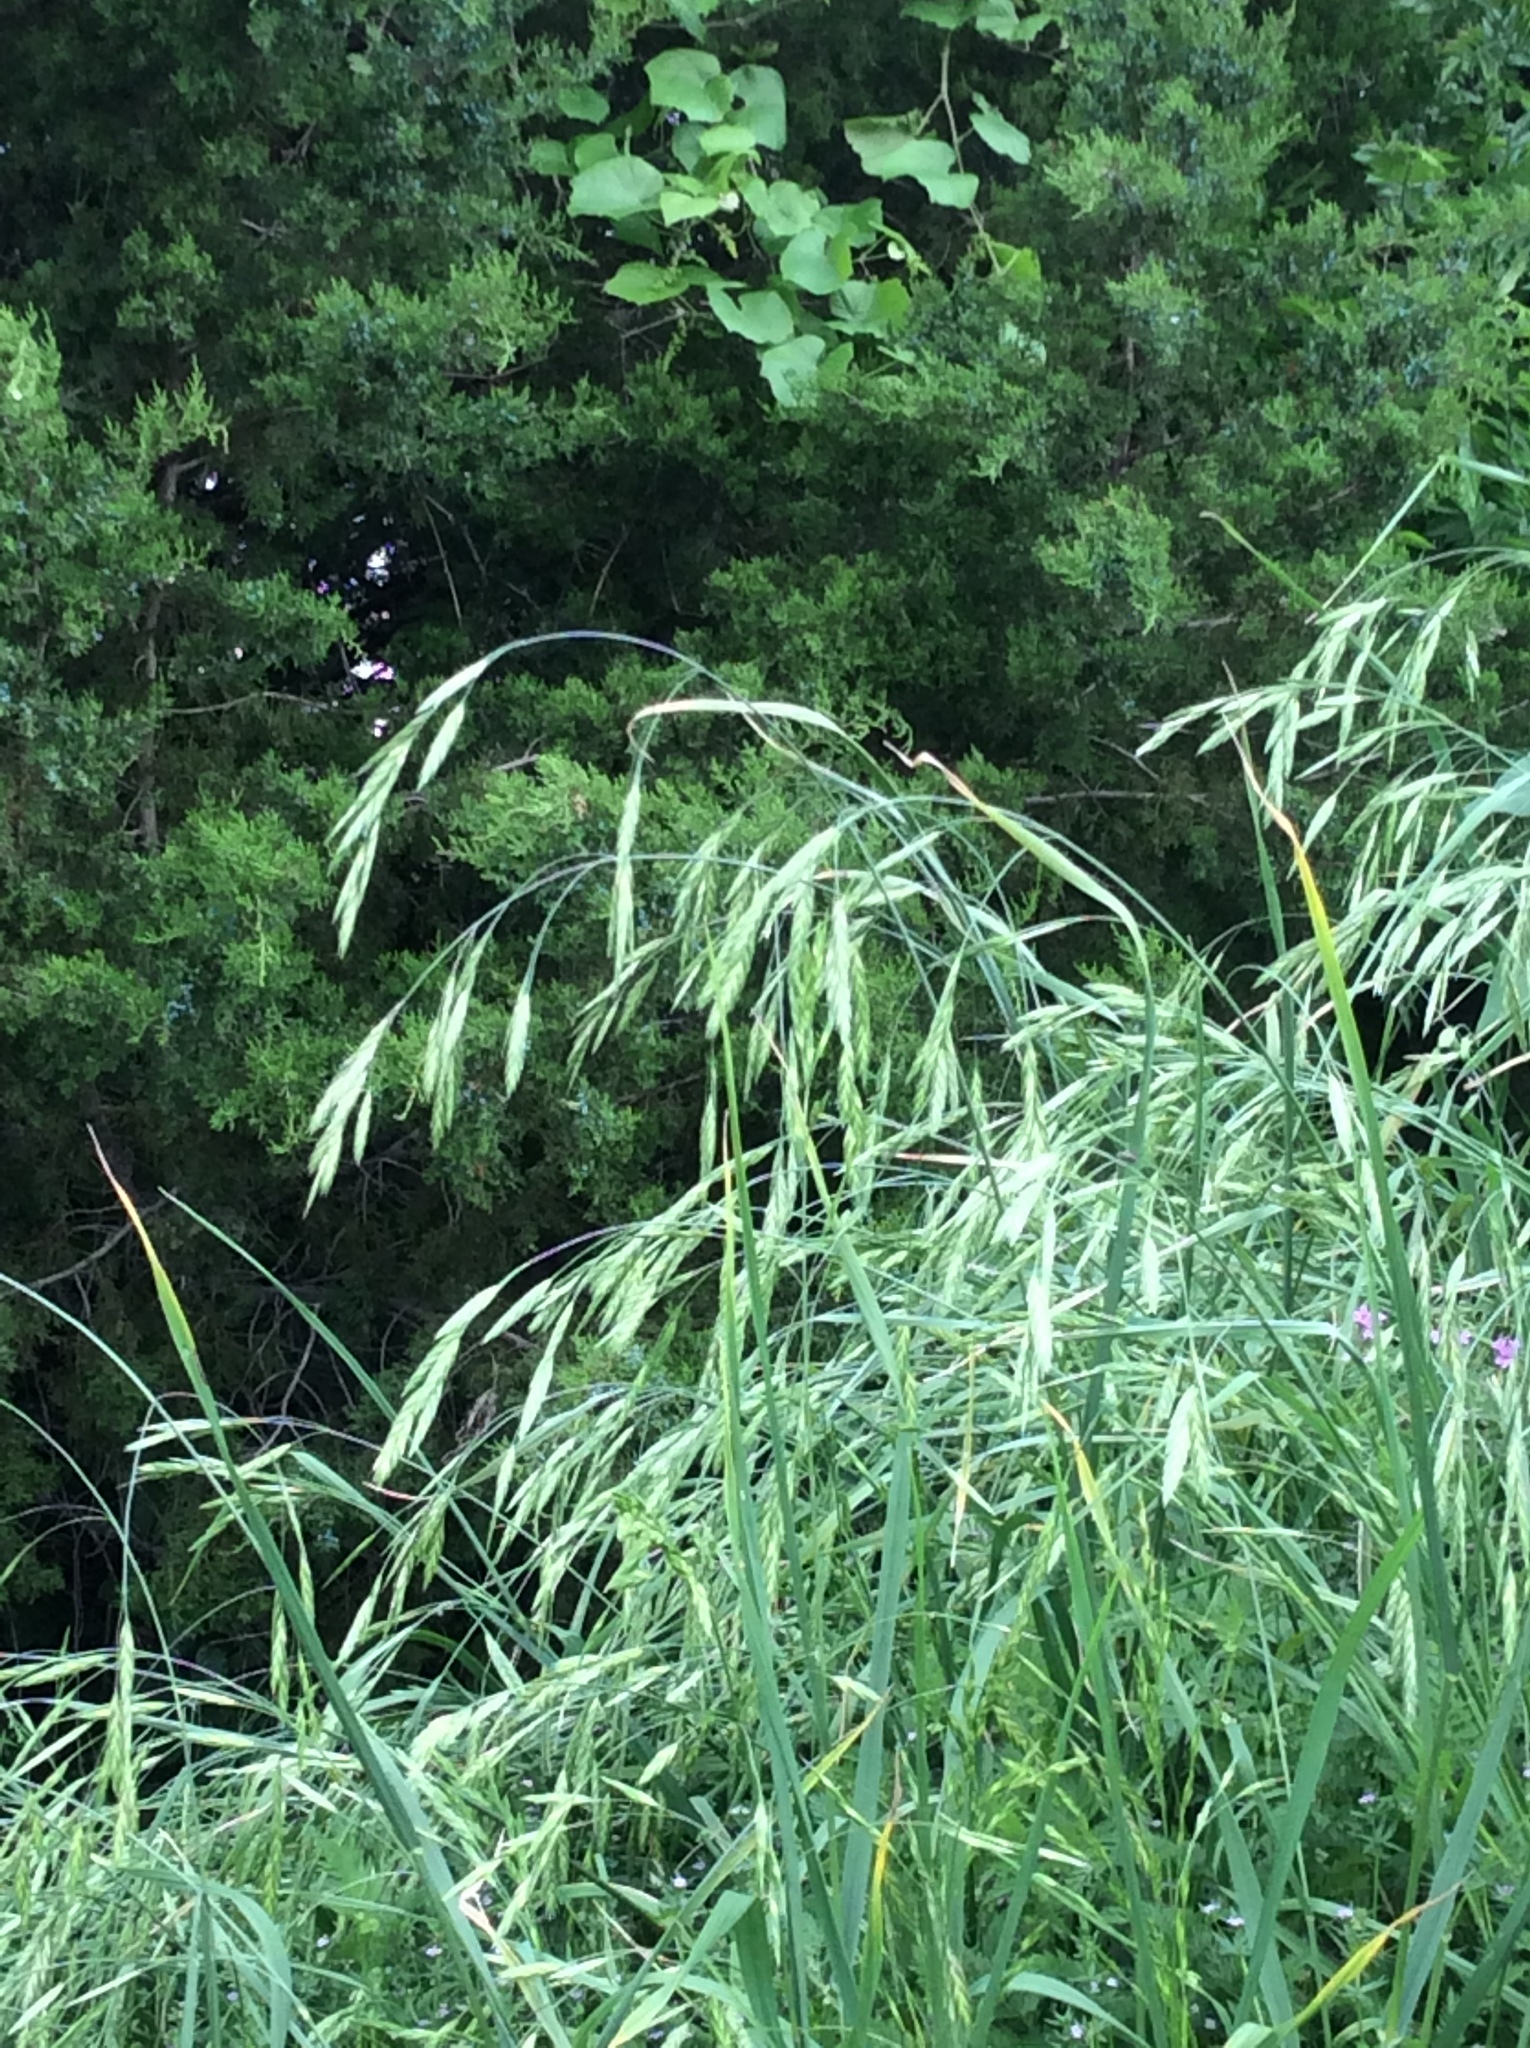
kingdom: Plantae
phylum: Tracheophyta
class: Liliopsida
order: Poales
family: Poaceae
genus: Bromus
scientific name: Bromus catharticus
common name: Rescuegrass
